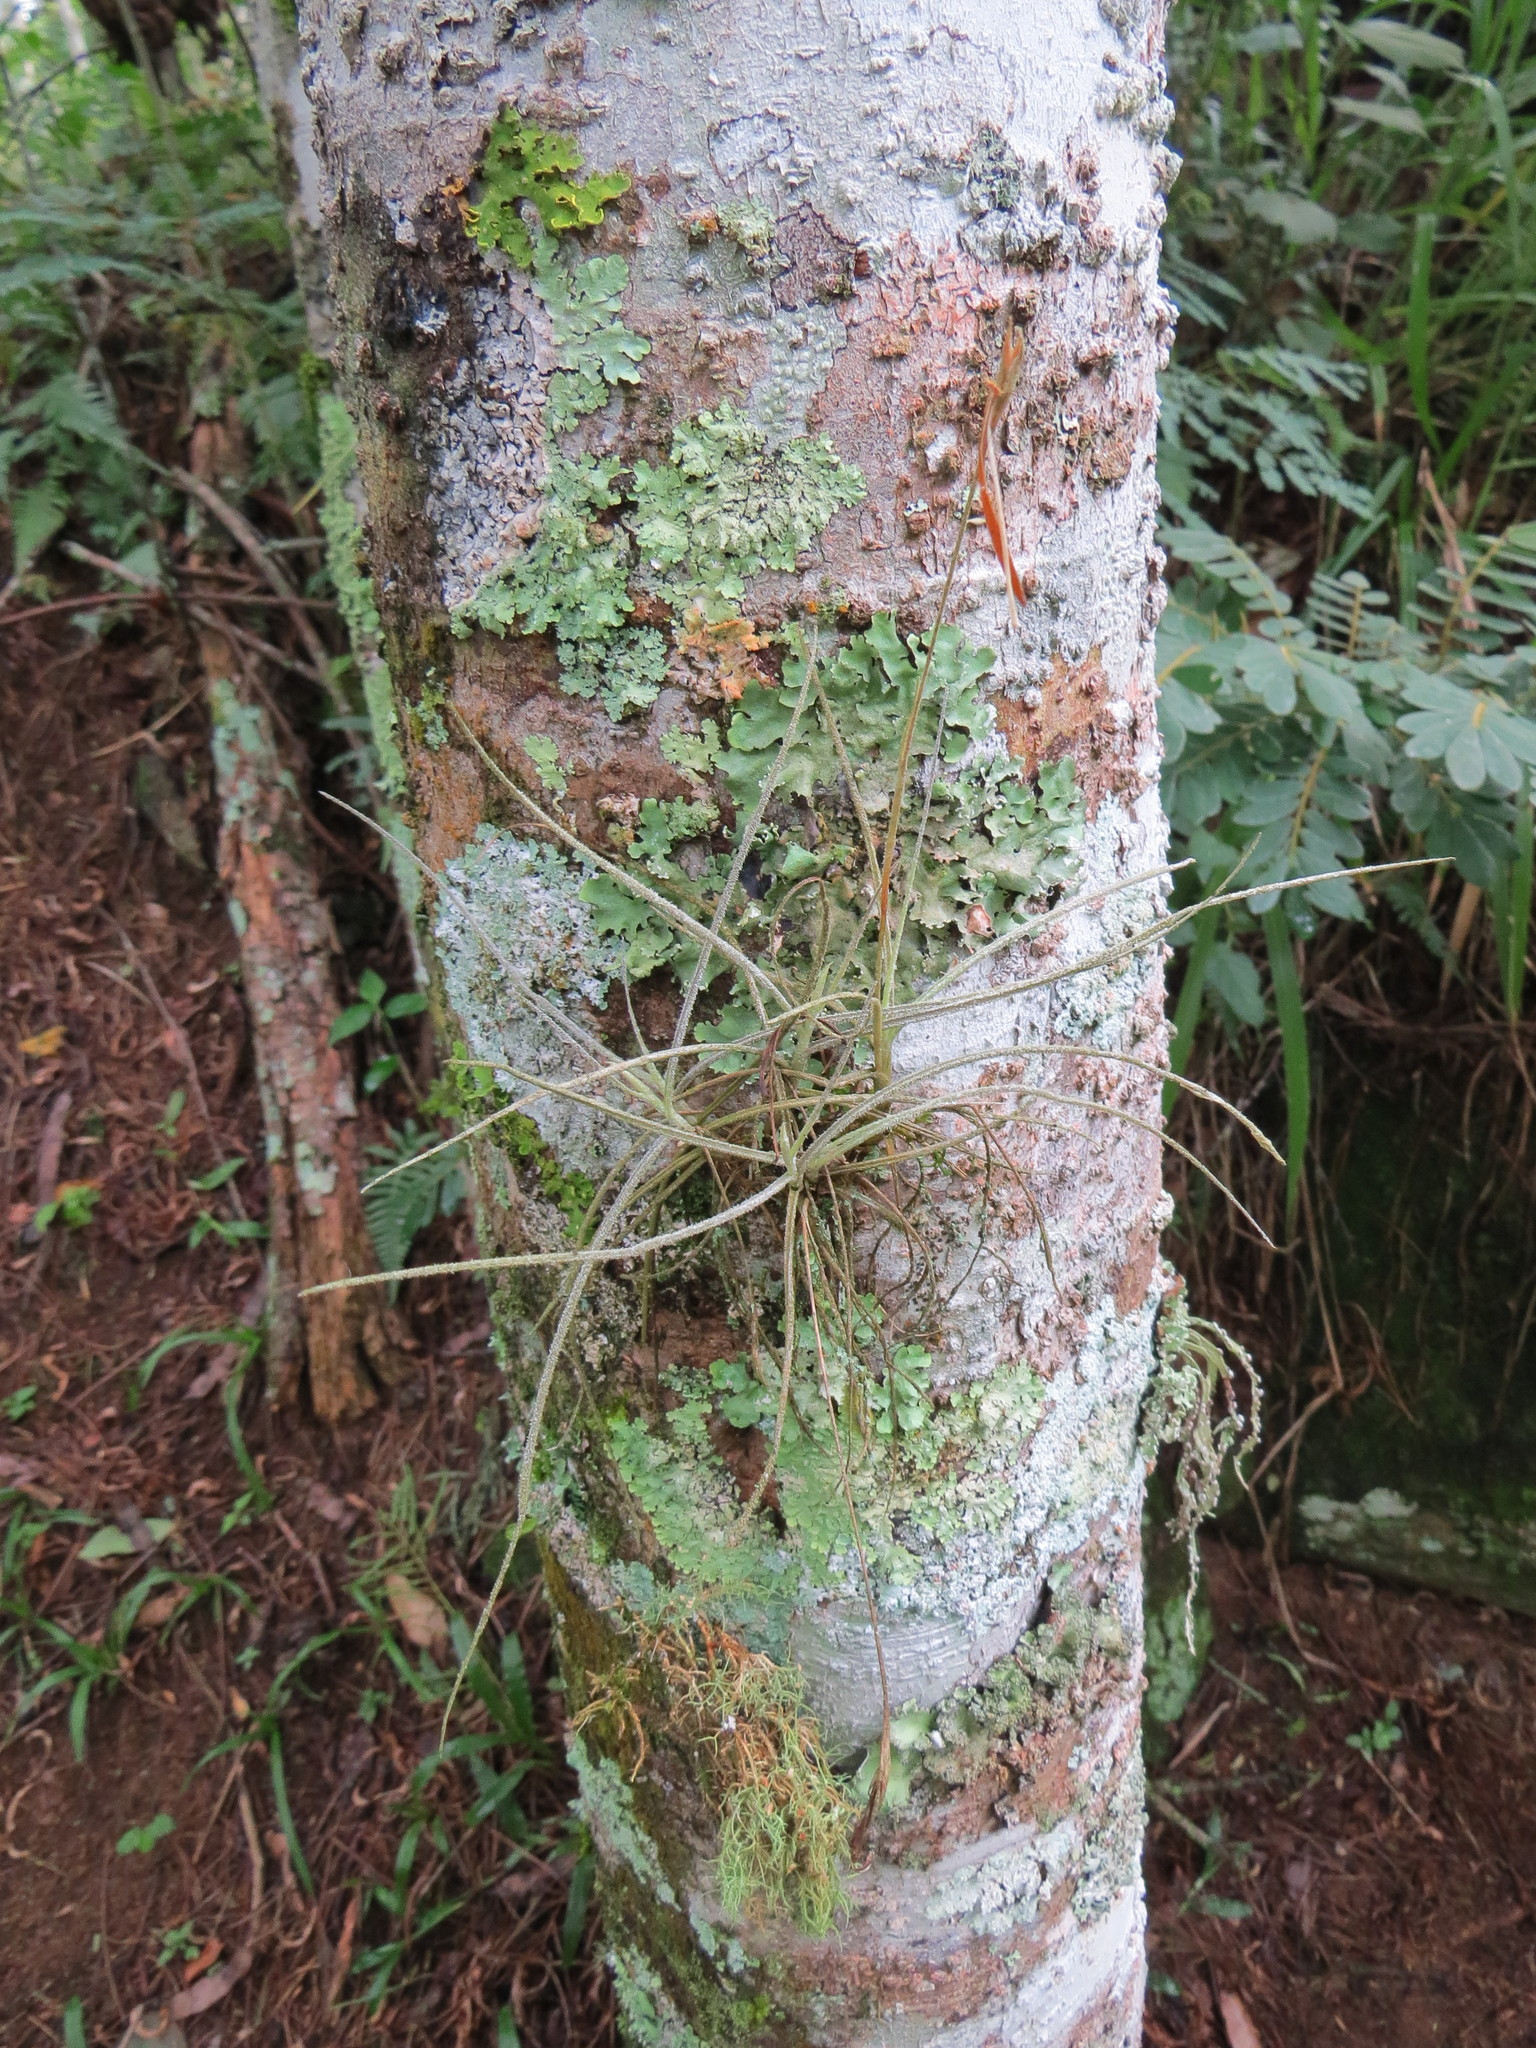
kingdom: Plantae
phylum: Tracheophyta
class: Liliopsida
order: Poales
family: Bromeliaceae
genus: Tillandsia
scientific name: Tillandsia recurvata
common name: Small ballmoss
